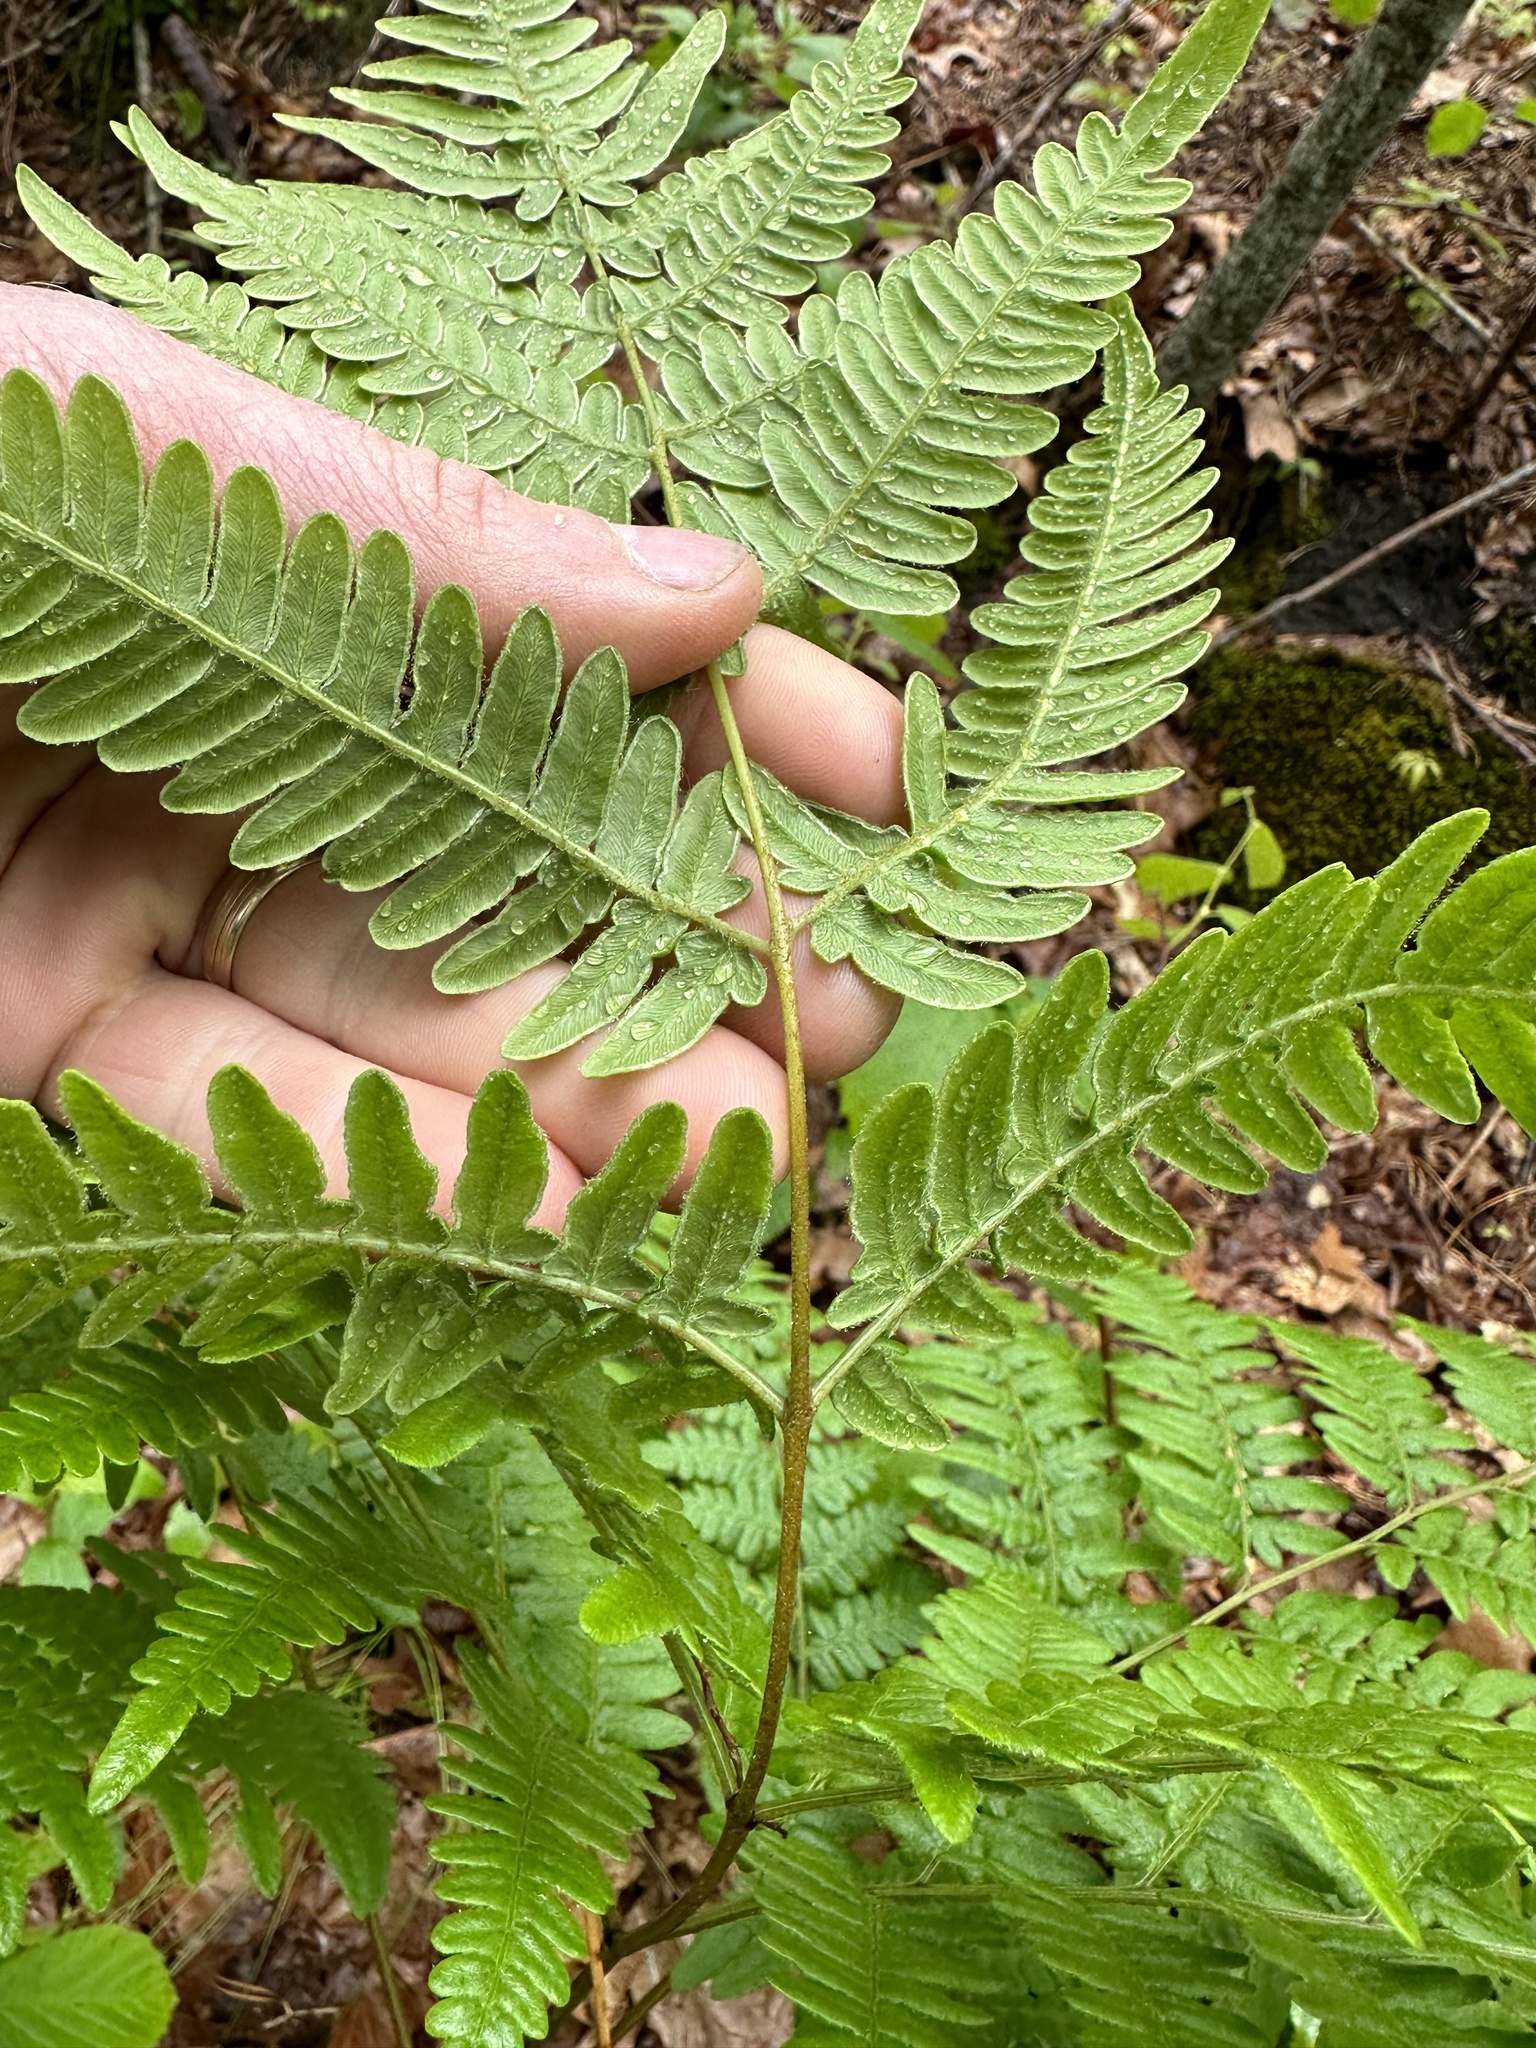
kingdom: Plantae
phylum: Tracheophyta
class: Polypodiopsida
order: Polypodiales
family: Dennstaedtiaceae
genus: Pteridium
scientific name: Pteridium aquilinum
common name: Bracken
